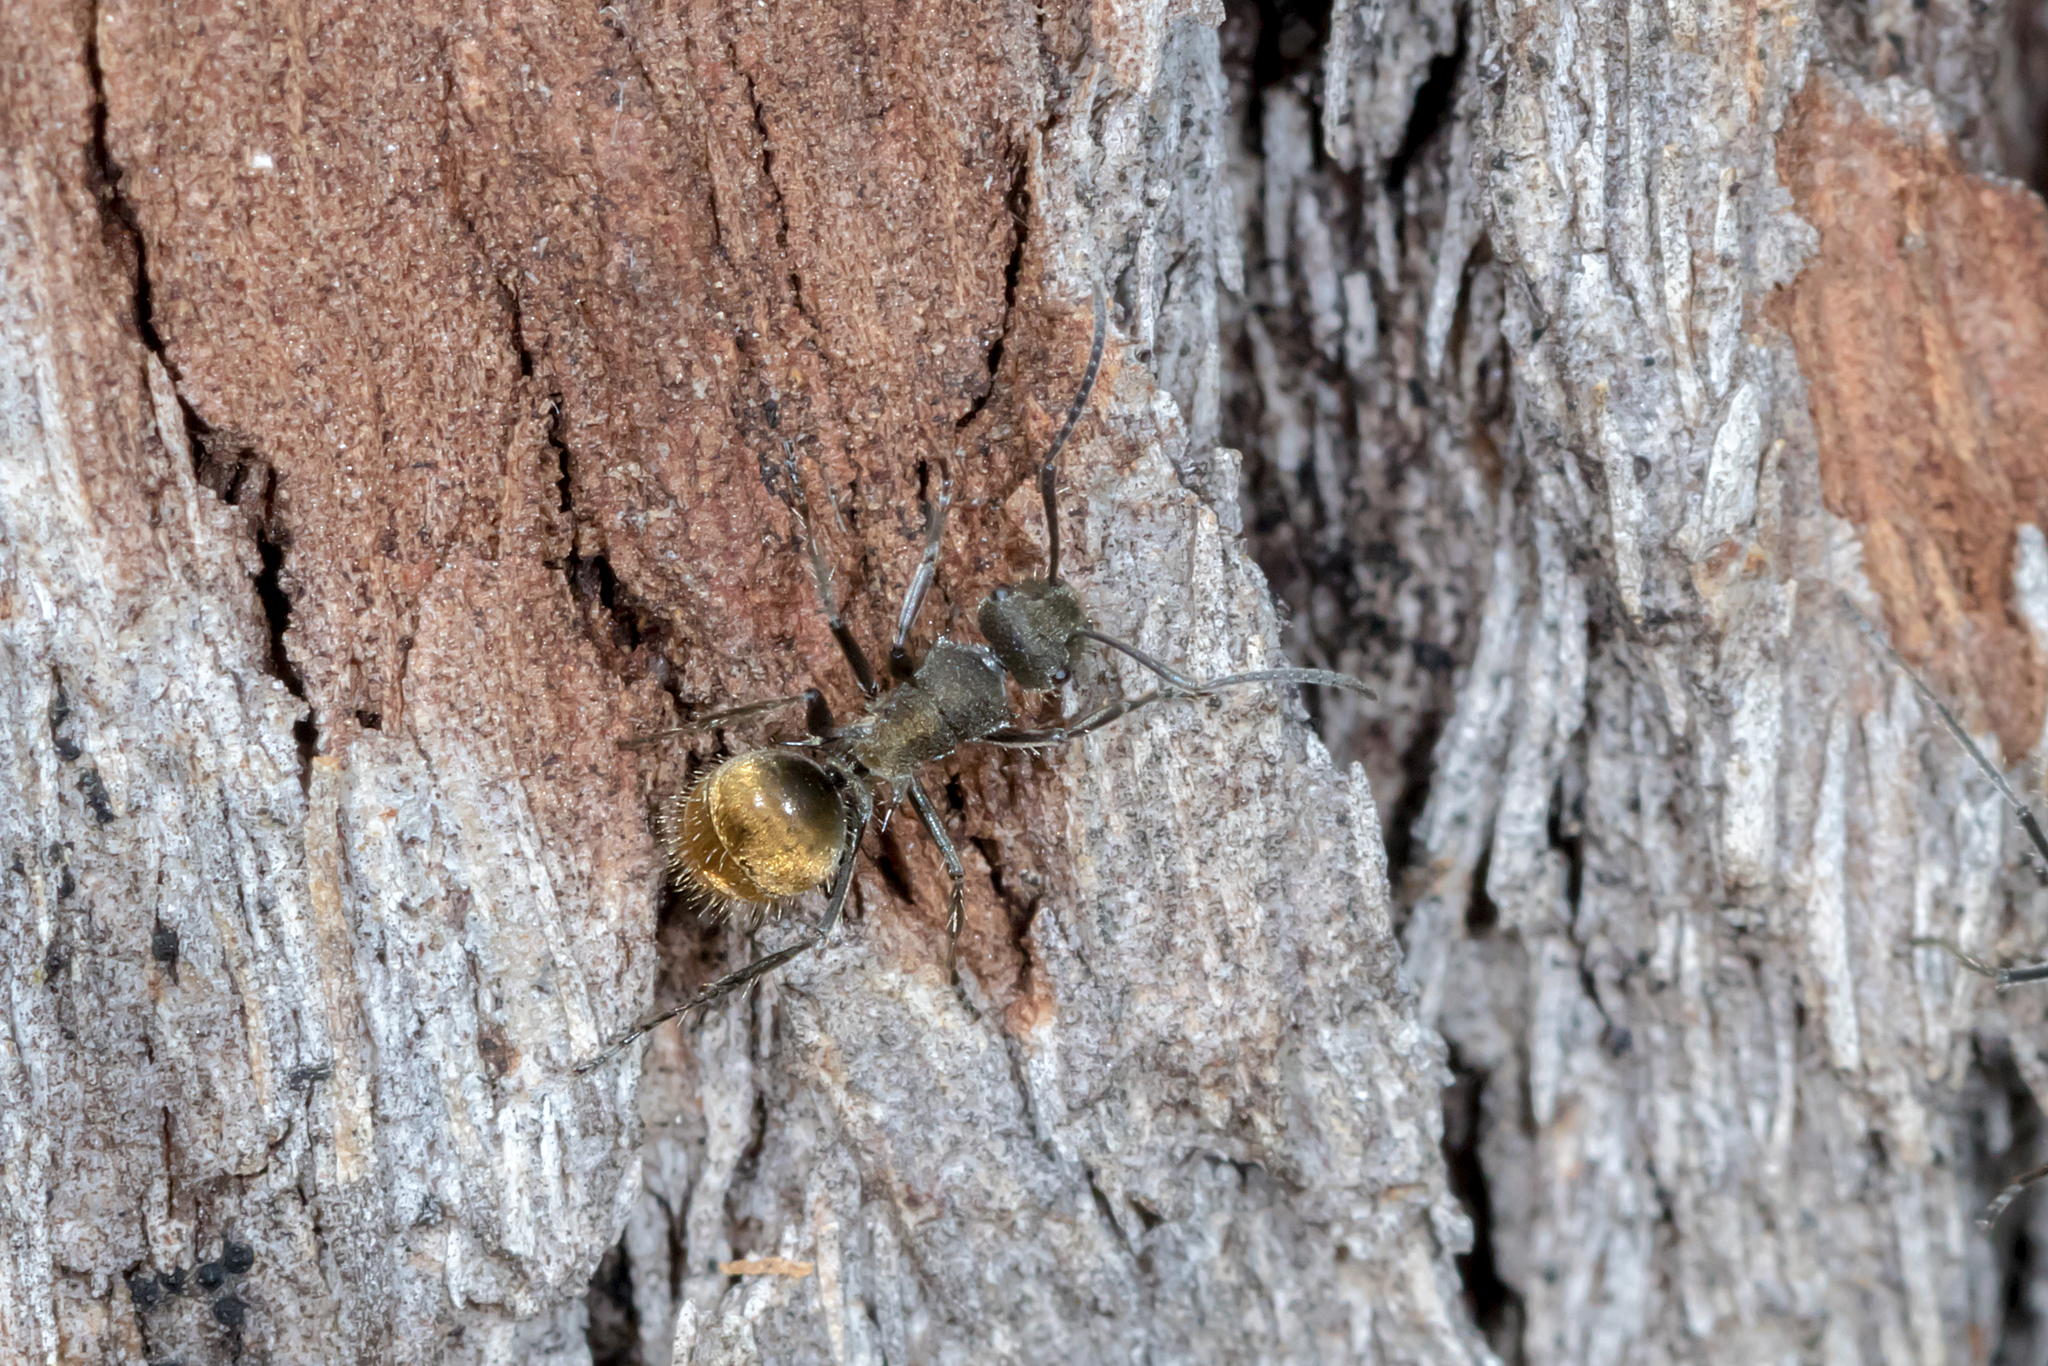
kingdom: Animalia
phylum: Arthropoda
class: Insecta
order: Hymenoptera
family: Formicidae
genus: Polyrhachis
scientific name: Polyrhachis aurea
